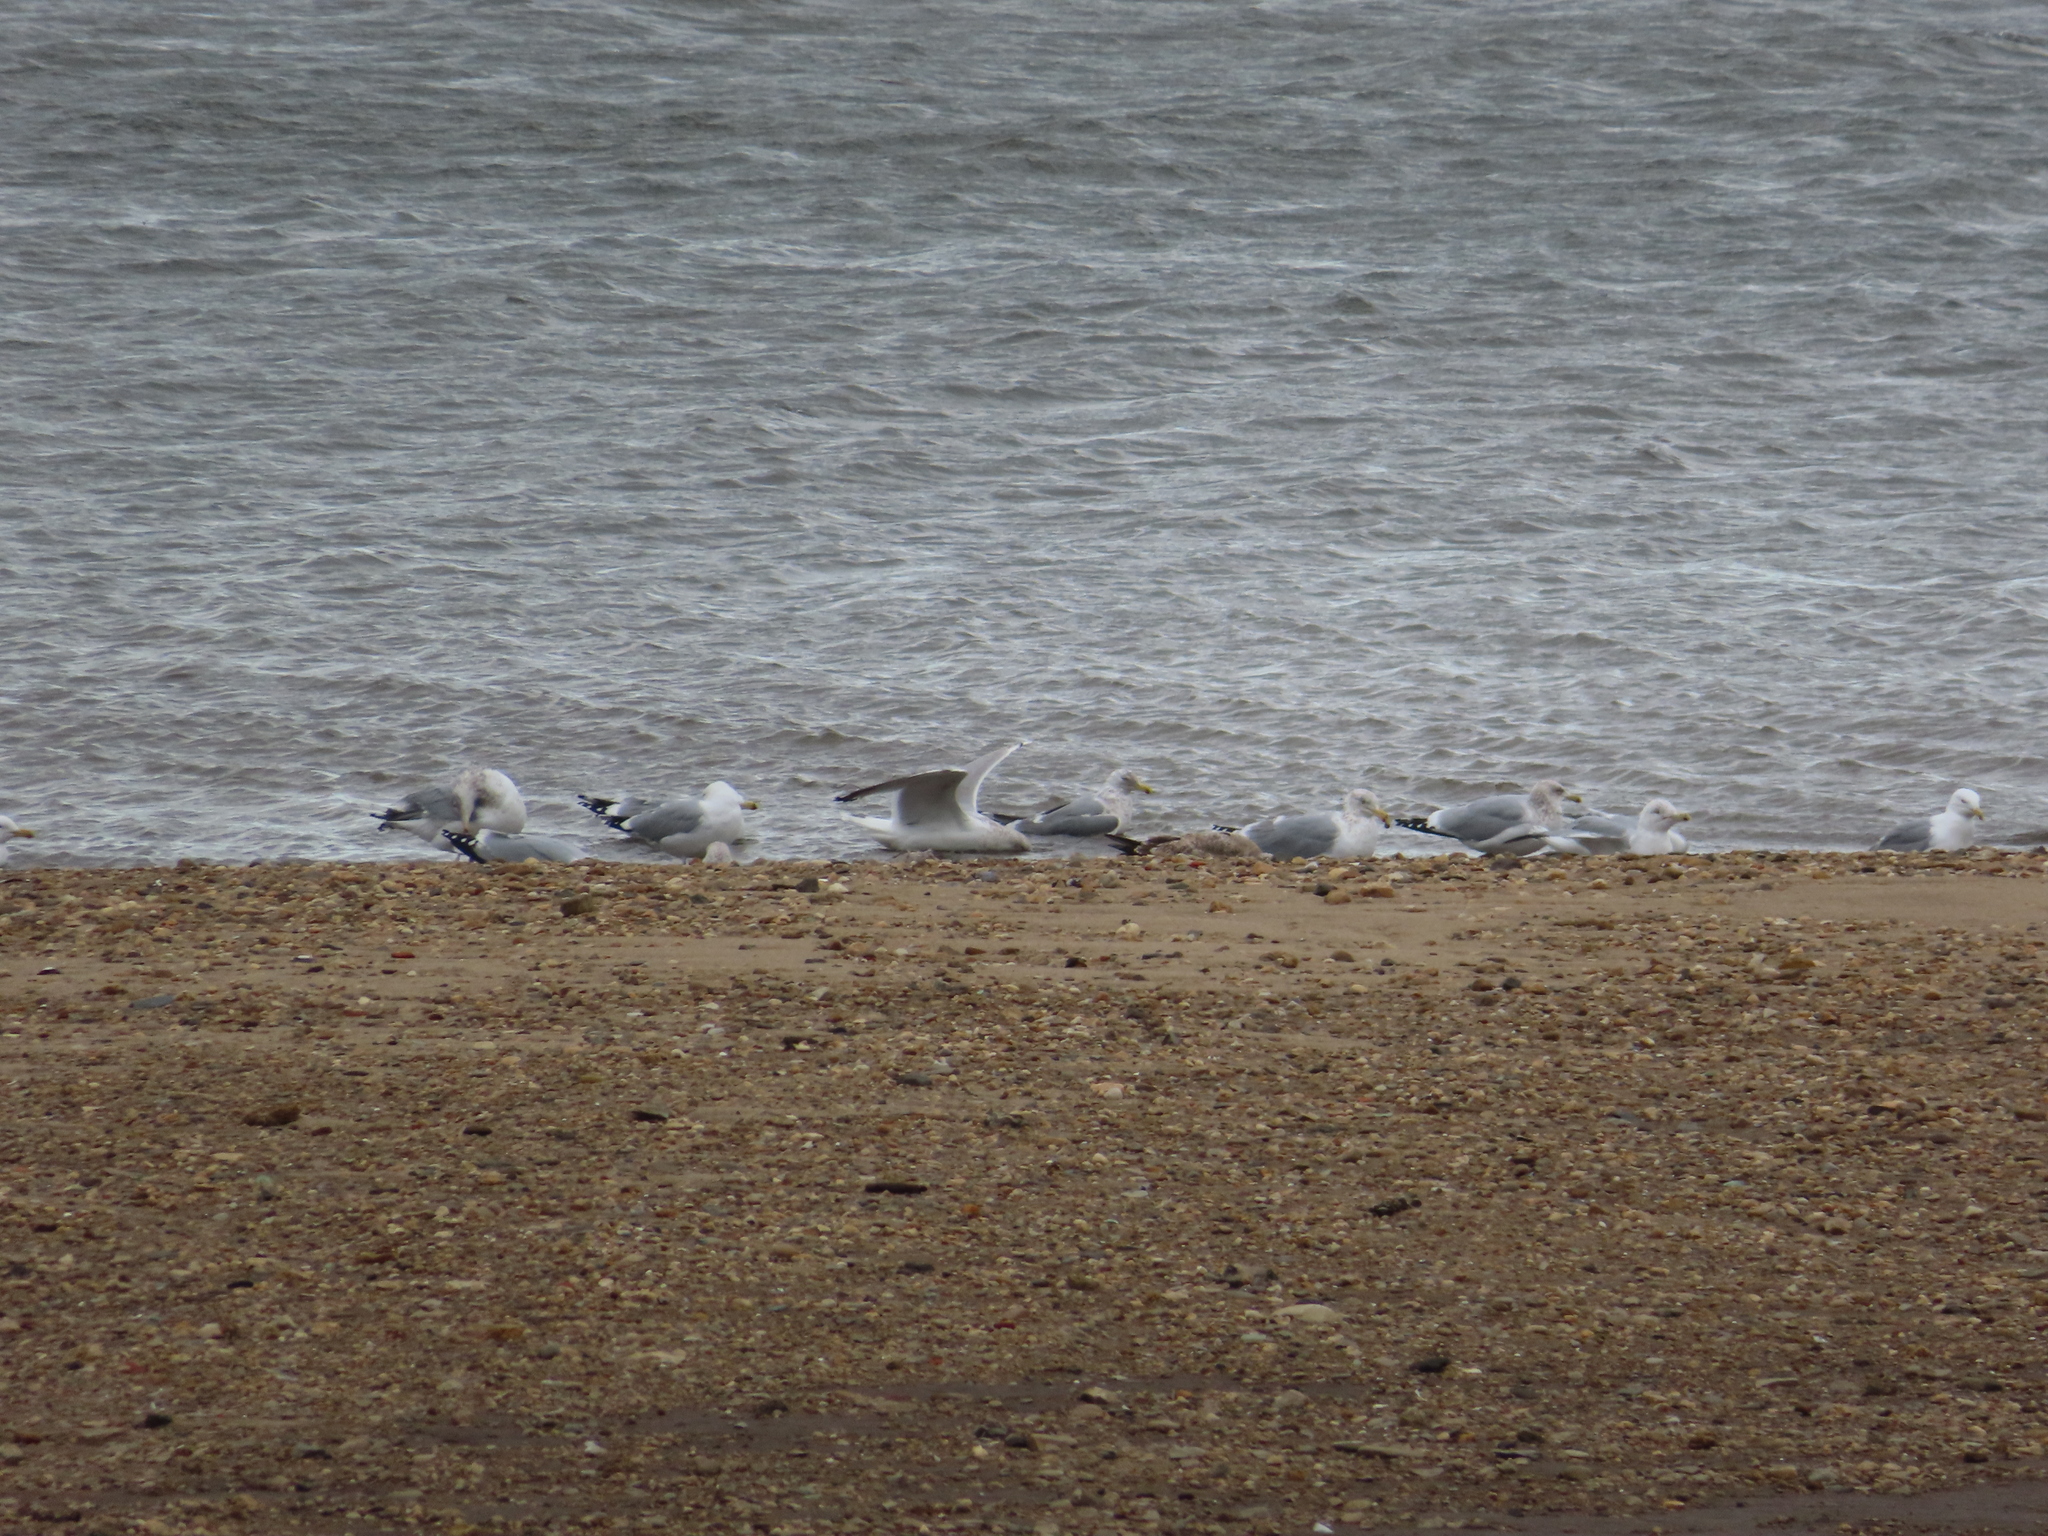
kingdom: Animalia
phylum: Chordata
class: Aves
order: Charadriiformes
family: Laridae
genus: Larus
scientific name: Larus delawarensis
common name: Ring-billed gull
